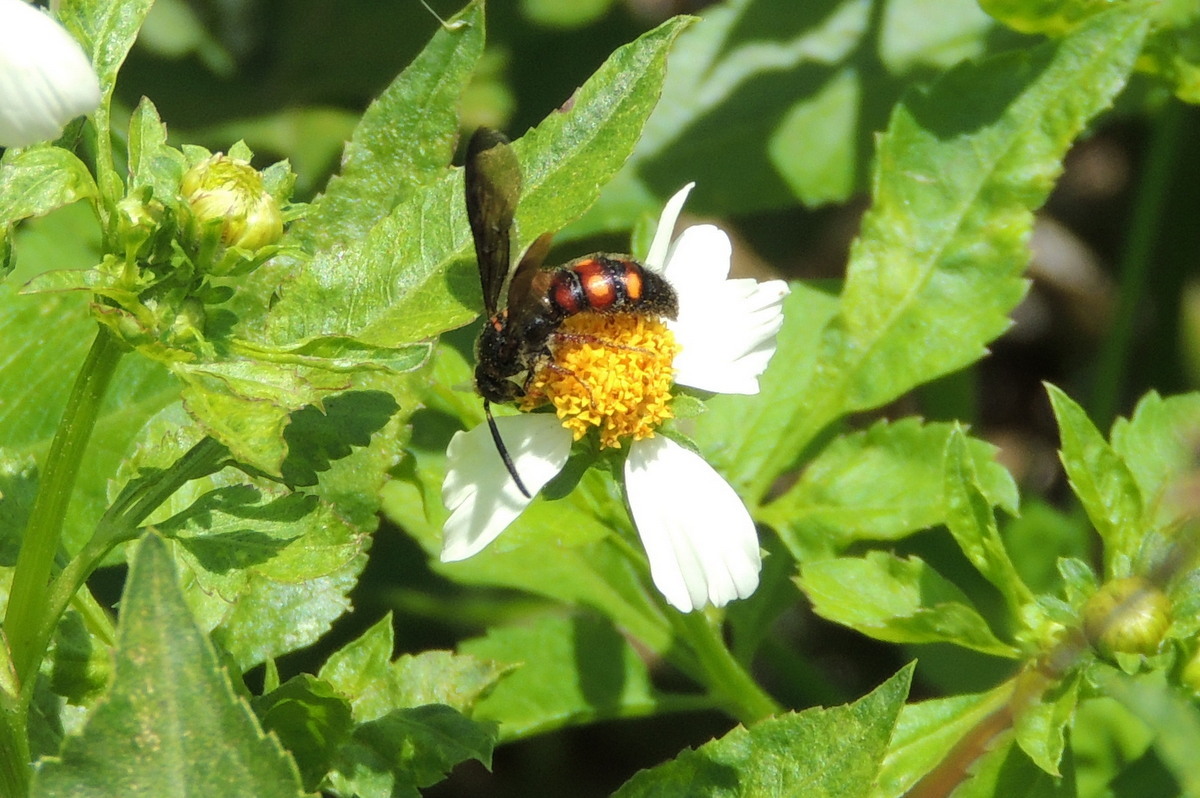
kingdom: Animalia
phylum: Arthropoda
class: Insecta
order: Hymenoptera
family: Scoliidae
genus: Scolia
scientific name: Scolia nobilitata
